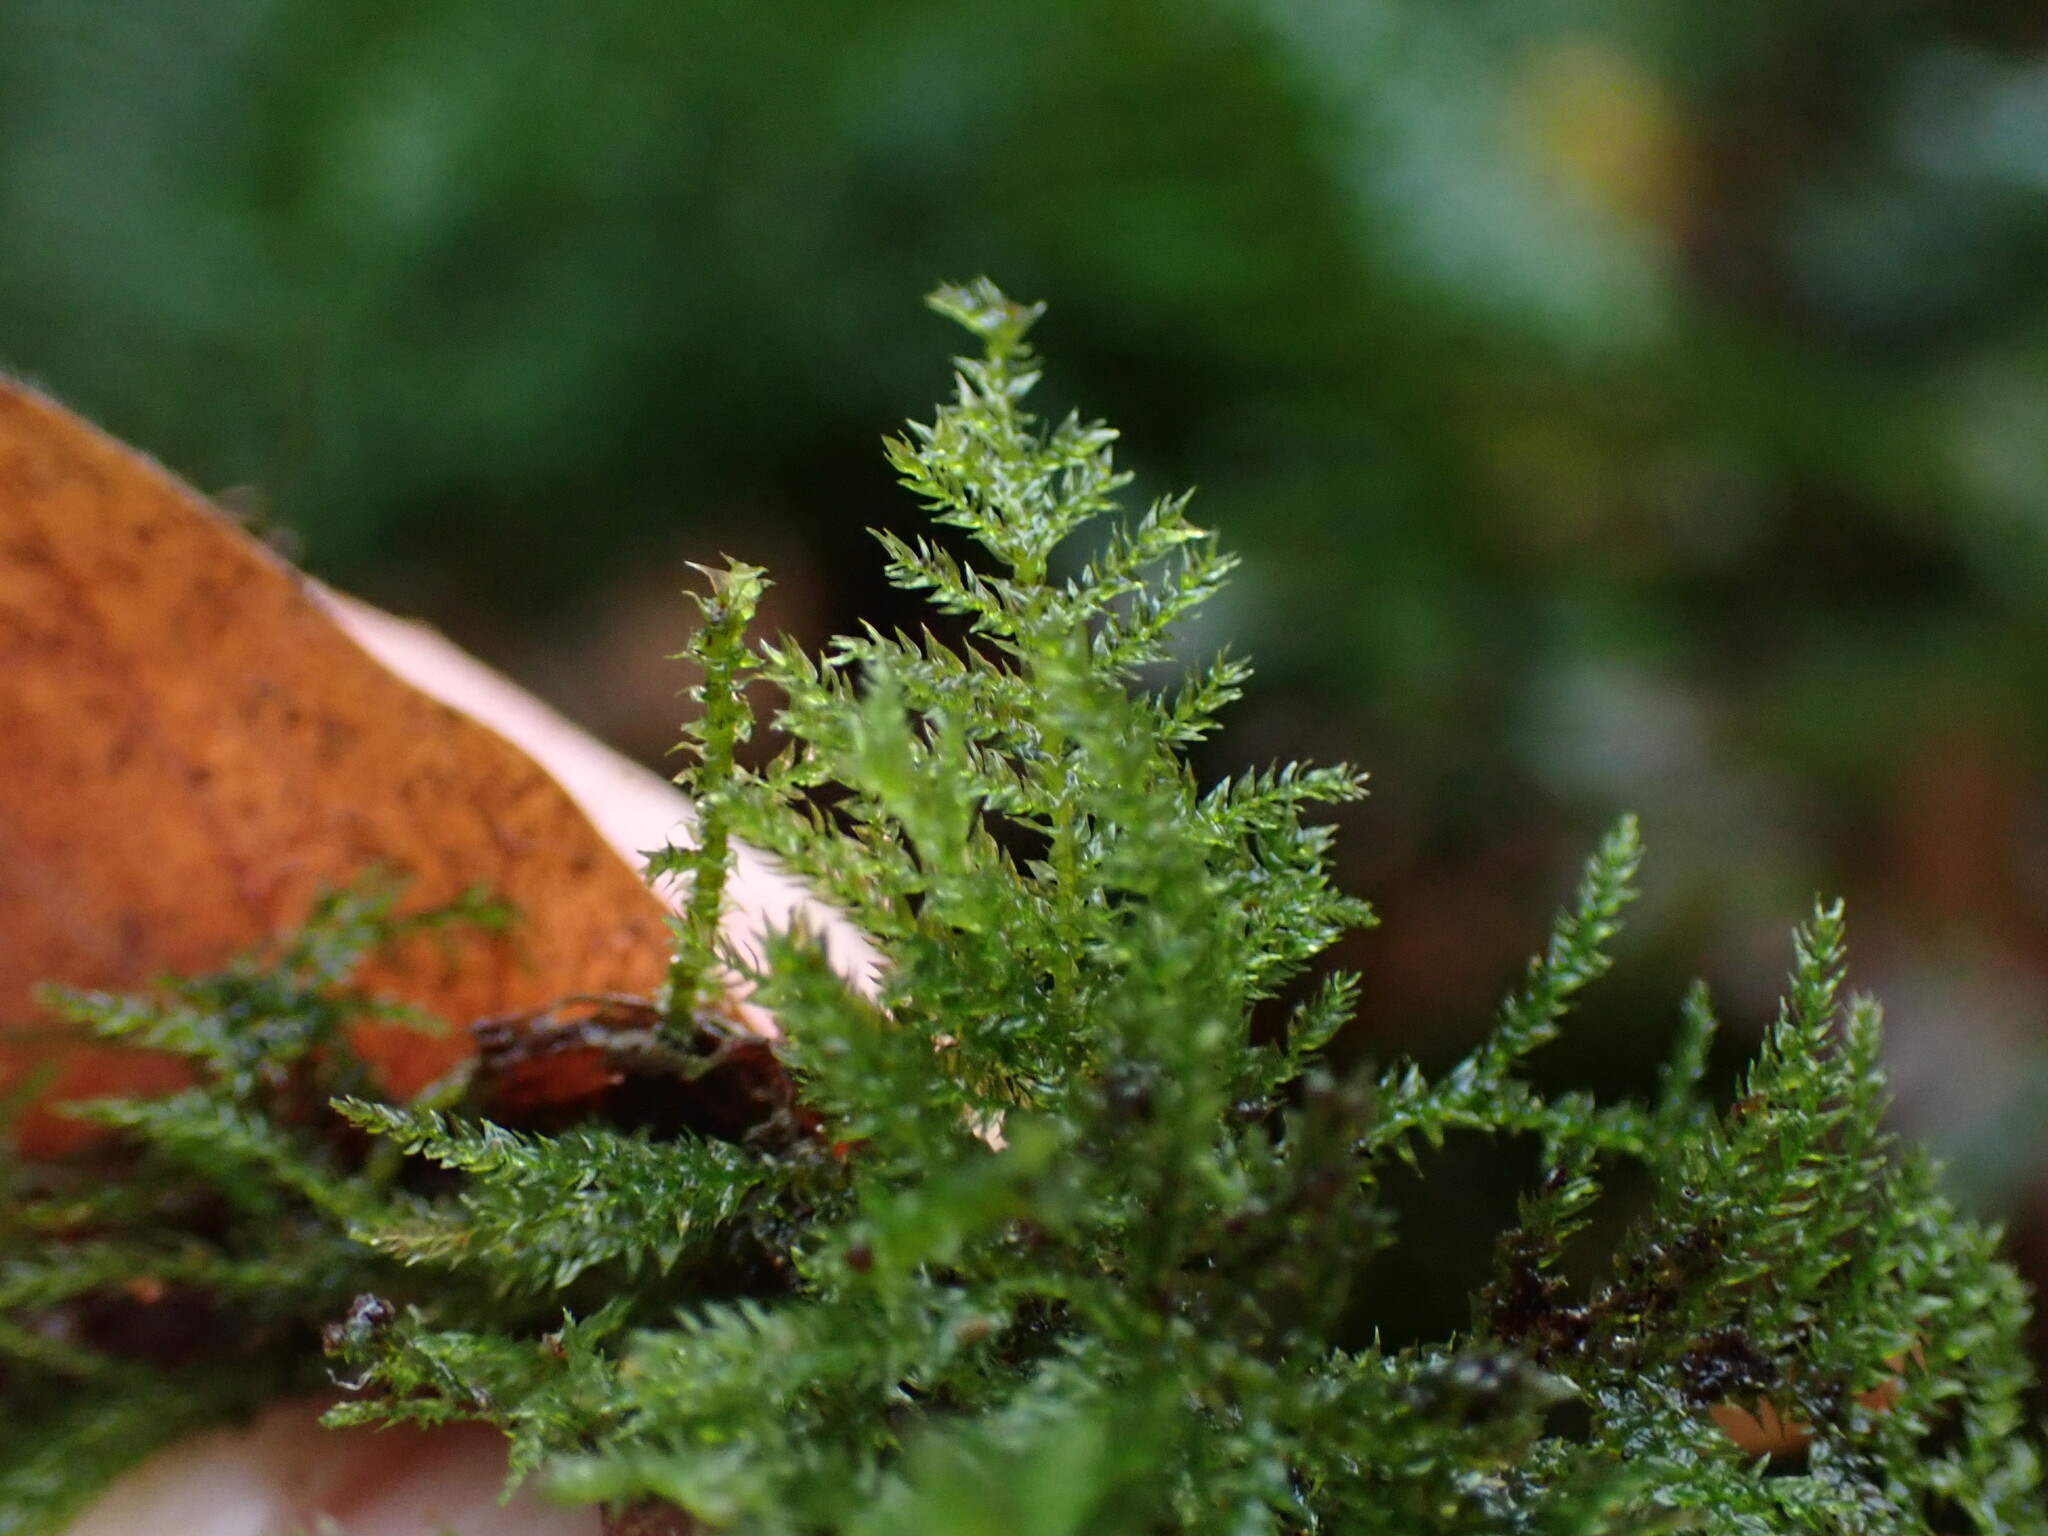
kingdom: Plantae
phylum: Bryophyta
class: Bryopsida
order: Hypnales
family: Brachytheciaceae
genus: Kindbergia
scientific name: Kindbergia praelonga
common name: Slender beaked moss
